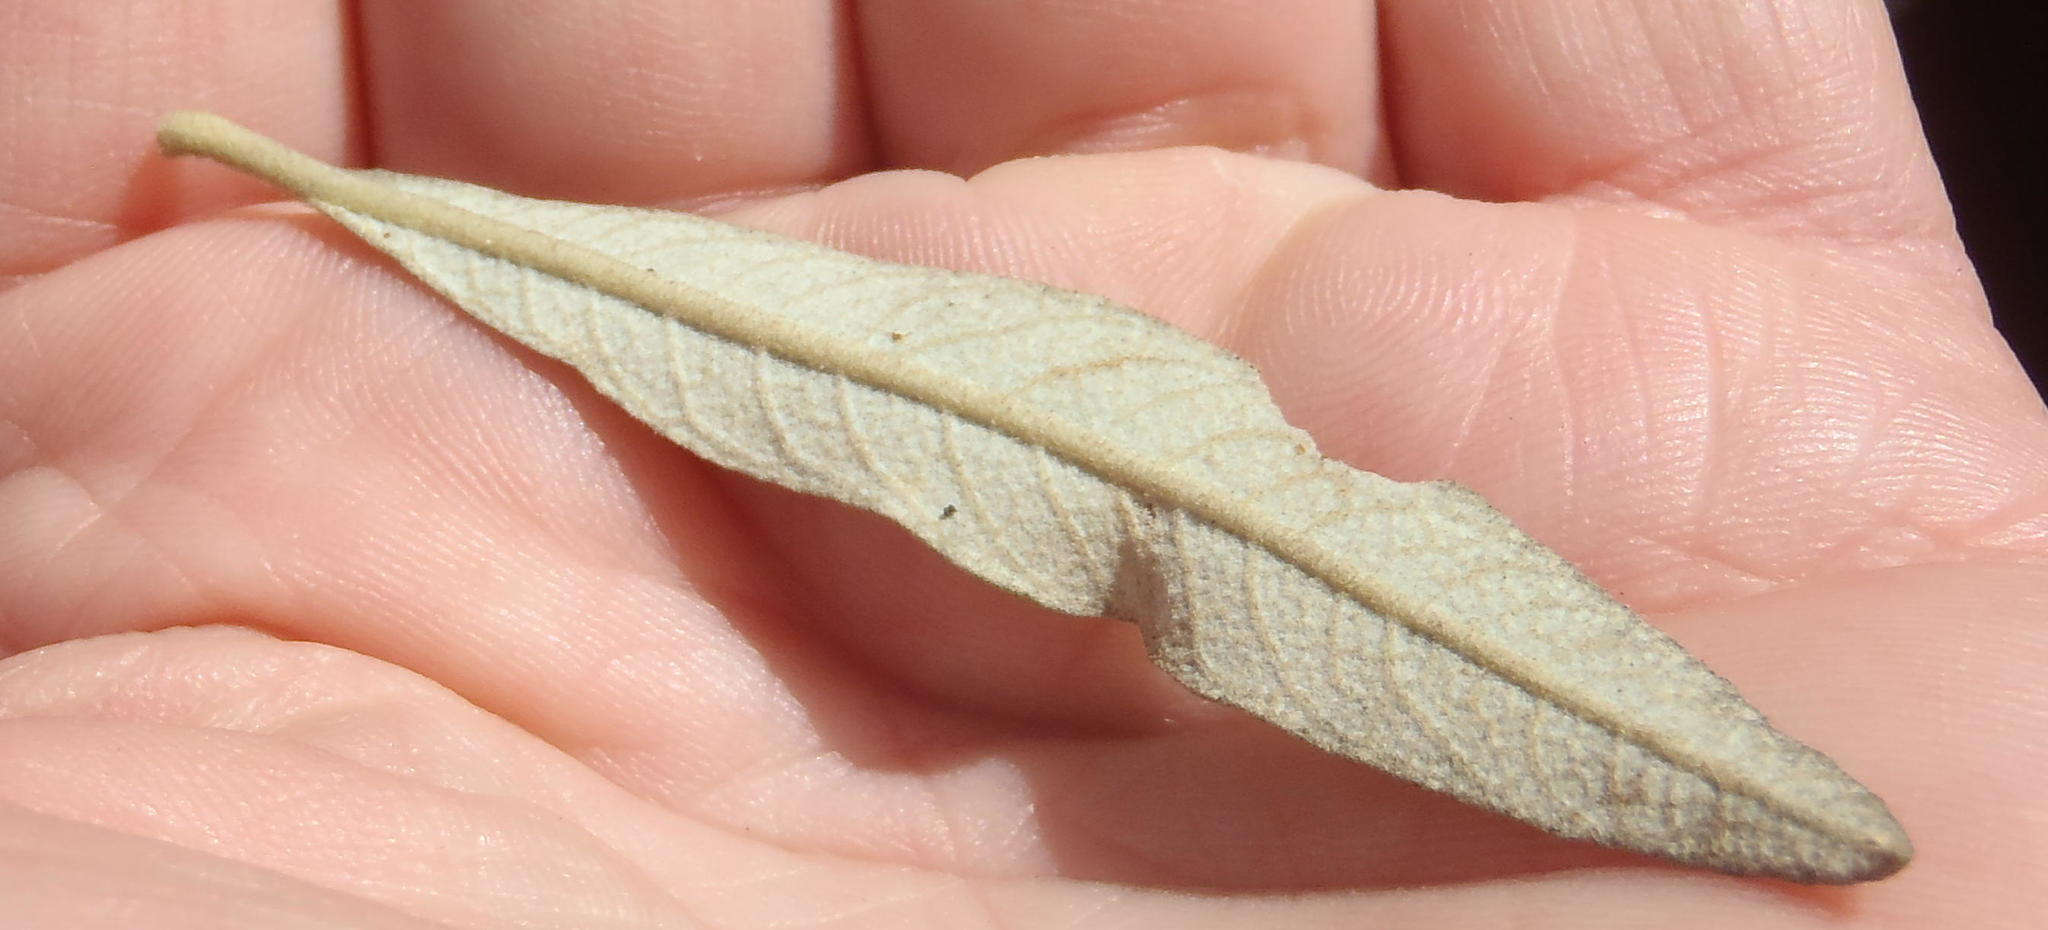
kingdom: Plantae
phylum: Tracheophyta
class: Magnoliopsida
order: Asterales
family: Asteraceae
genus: Tarchonanthus
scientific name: Tarchonanthus littoralis
